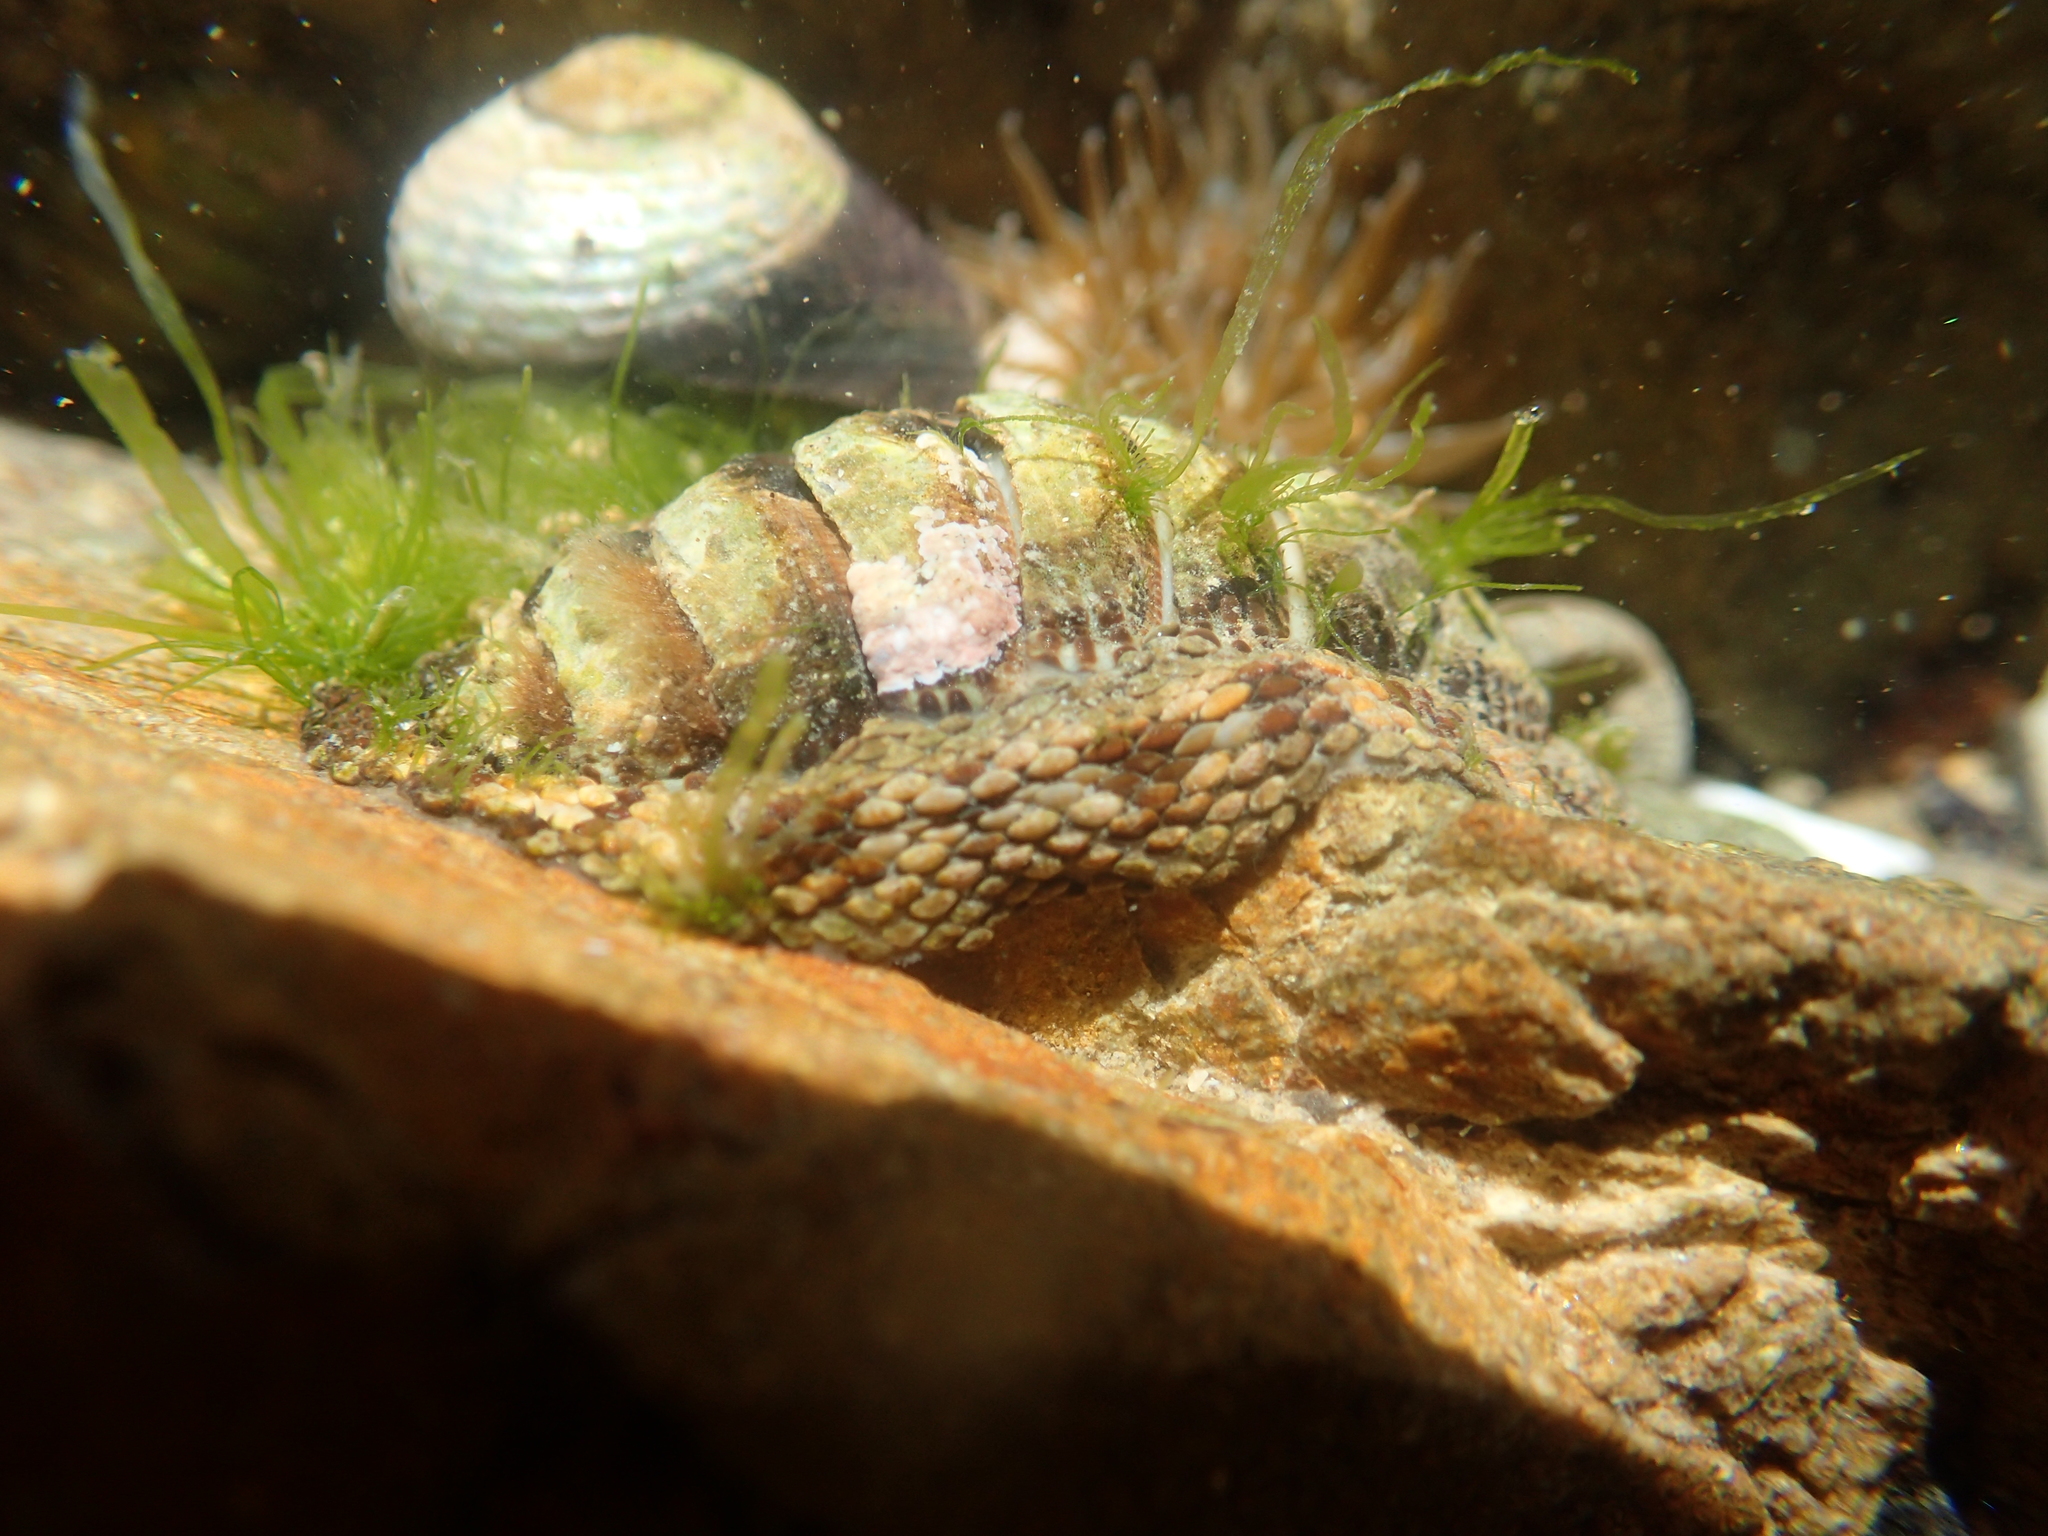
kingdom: Animalia
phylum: Mollusca
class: Polyplacophora
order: Chitonida
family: Chitonidae
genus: Sypharochiton
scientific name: Sypharochiton pelliserpentis
